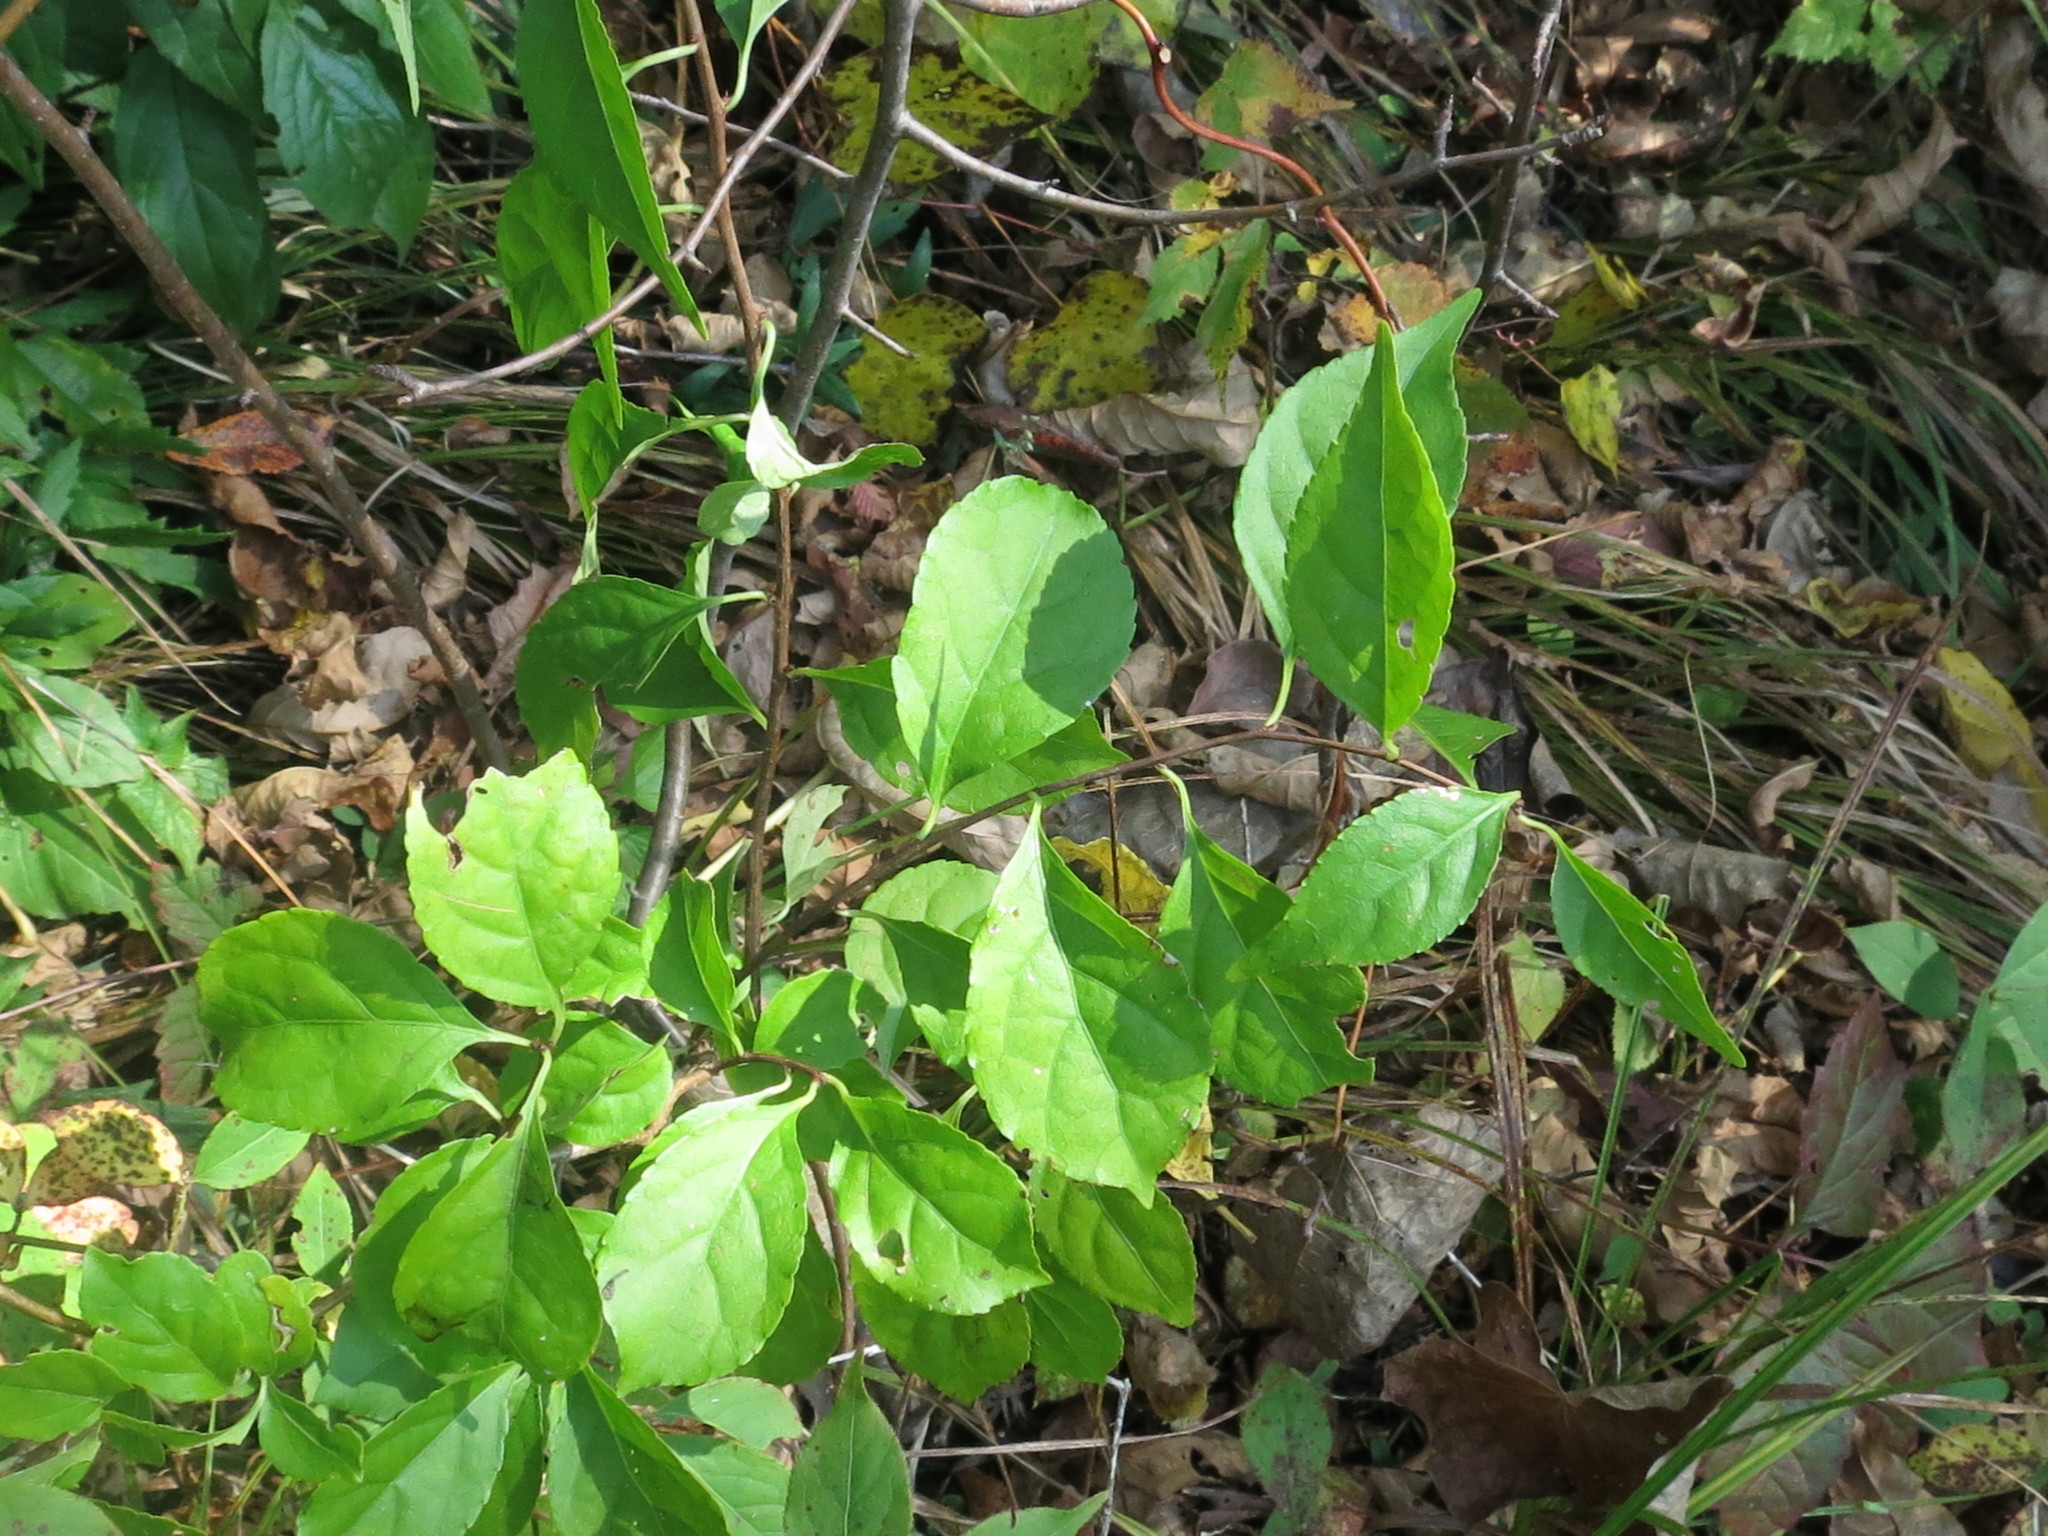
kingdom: Plantae
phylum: Tracheophyta
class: Magnoliopsida
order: Celastrales
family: Celastraceae
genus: Celastrus
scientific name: Celastrus orbiculatus
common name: Oriental bittersweet
